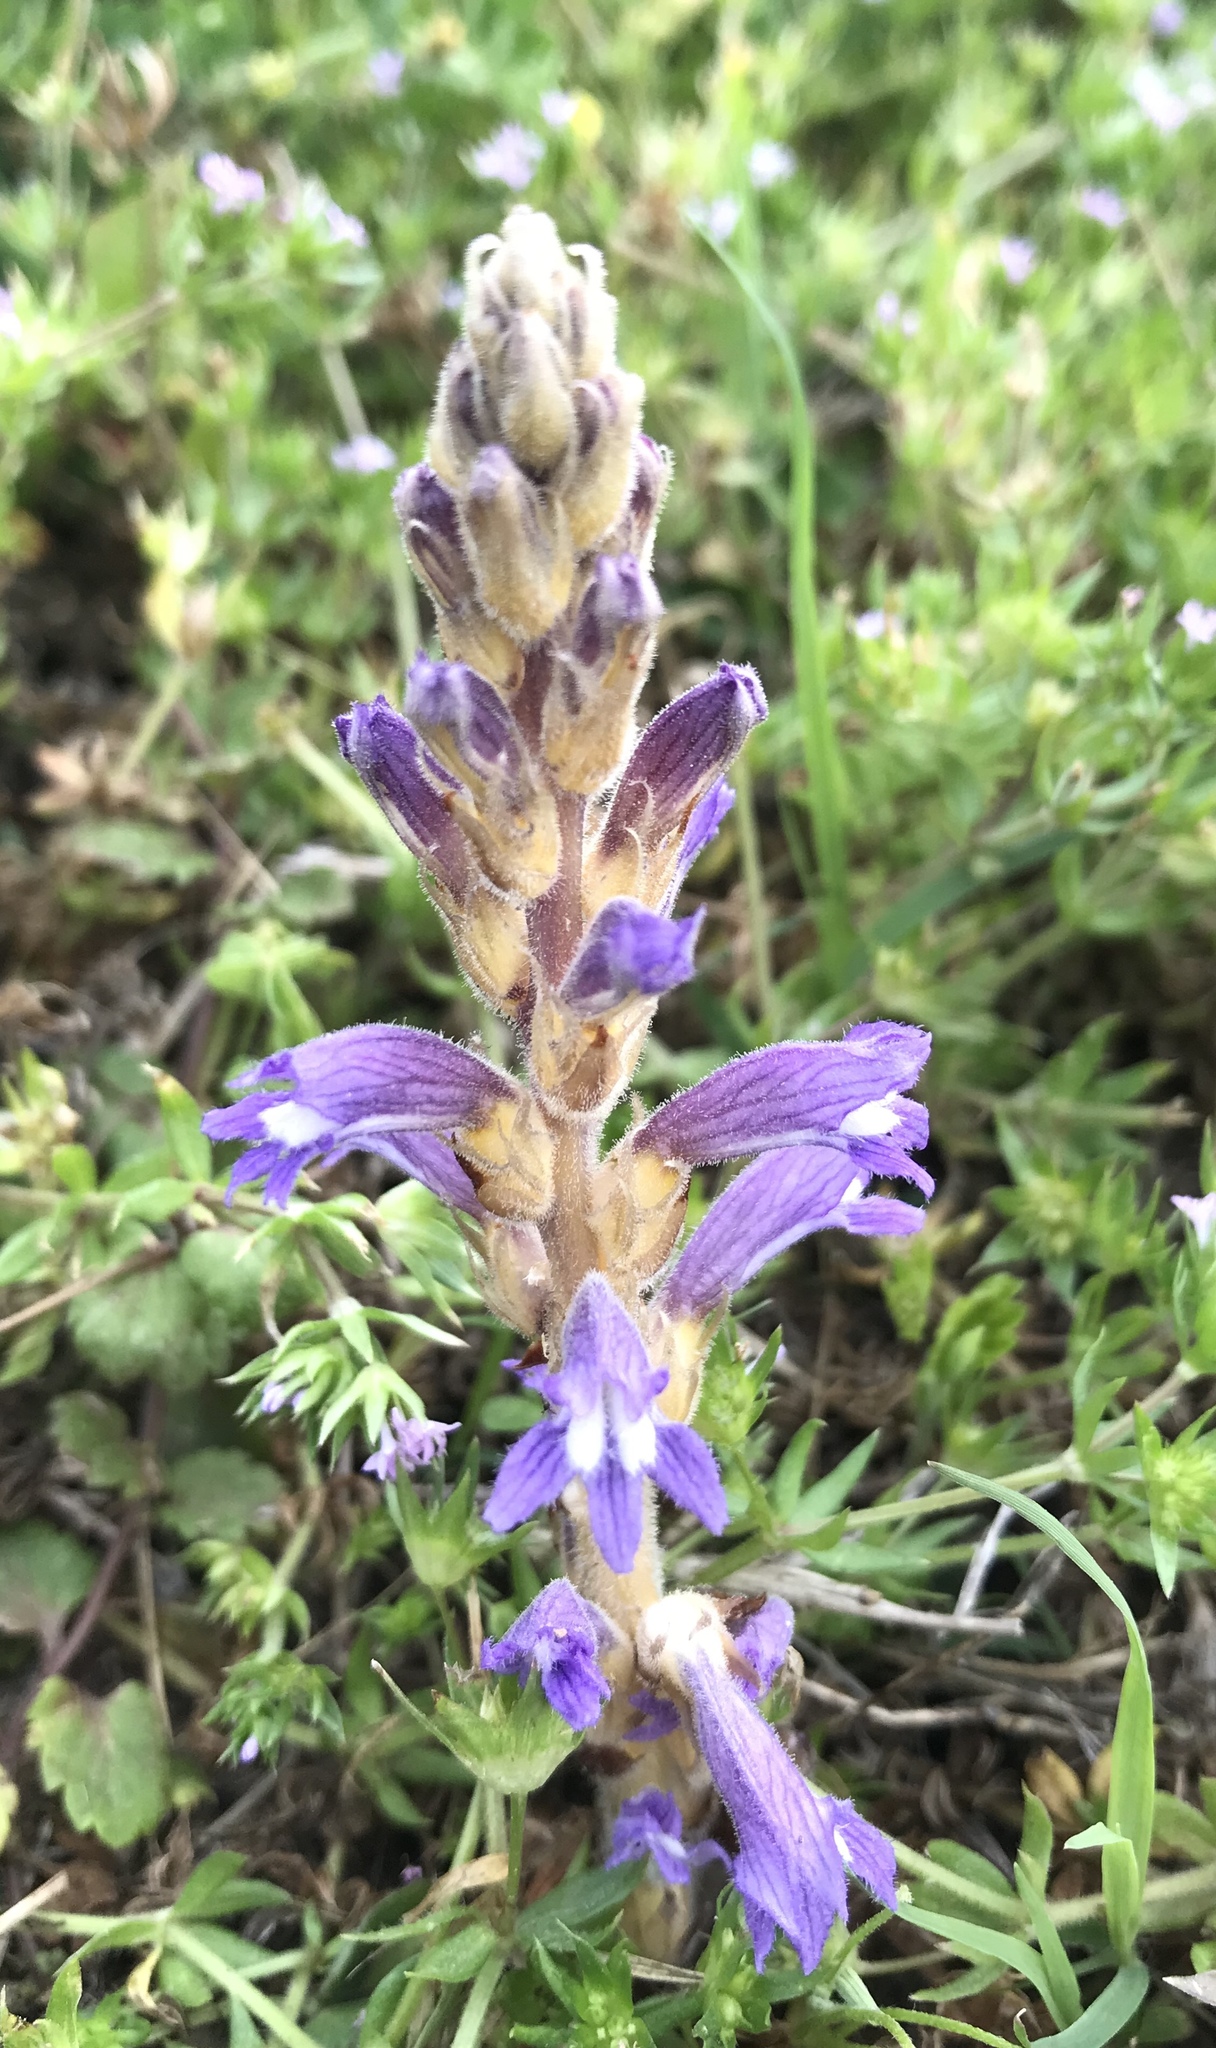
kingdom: Plantae
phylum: Tracheophyta
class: Magnoliopsida
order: Lamiales
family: Orobanchaceae
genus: Phelipanche
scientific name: Phelipanche ramosa
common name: Branched broomrape
